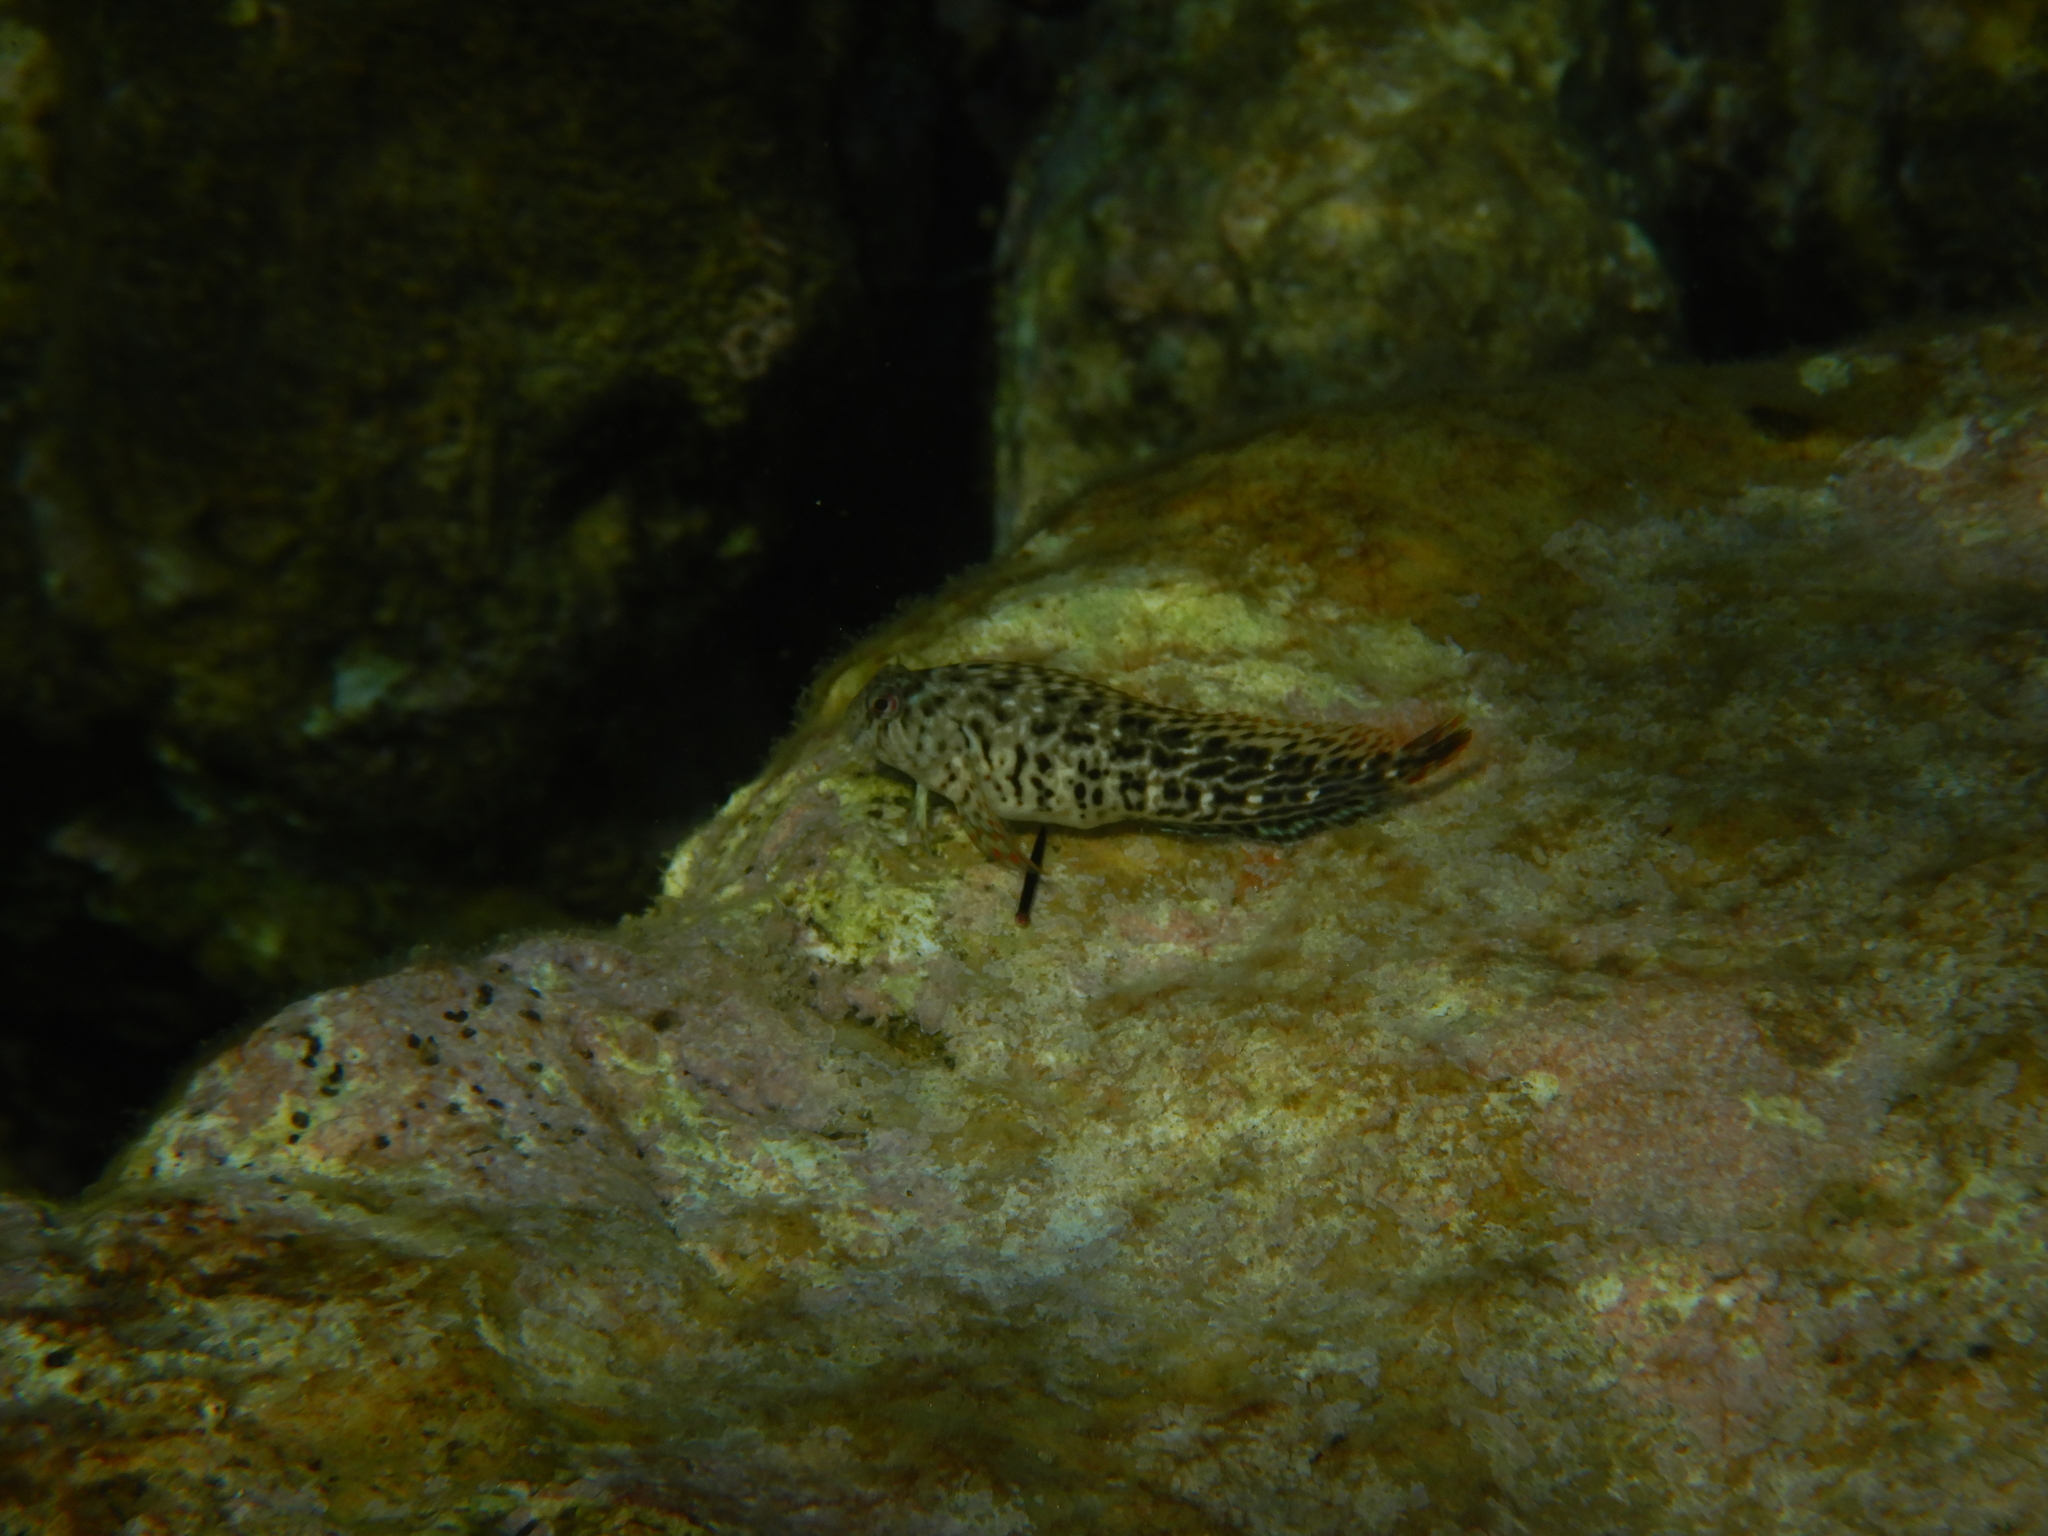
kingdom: Animalia
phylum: Chordata
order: Perciformes
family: Blenniidae
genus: Parablennius
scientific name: Parablennius sanguinolentus
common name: Black sea blenny
